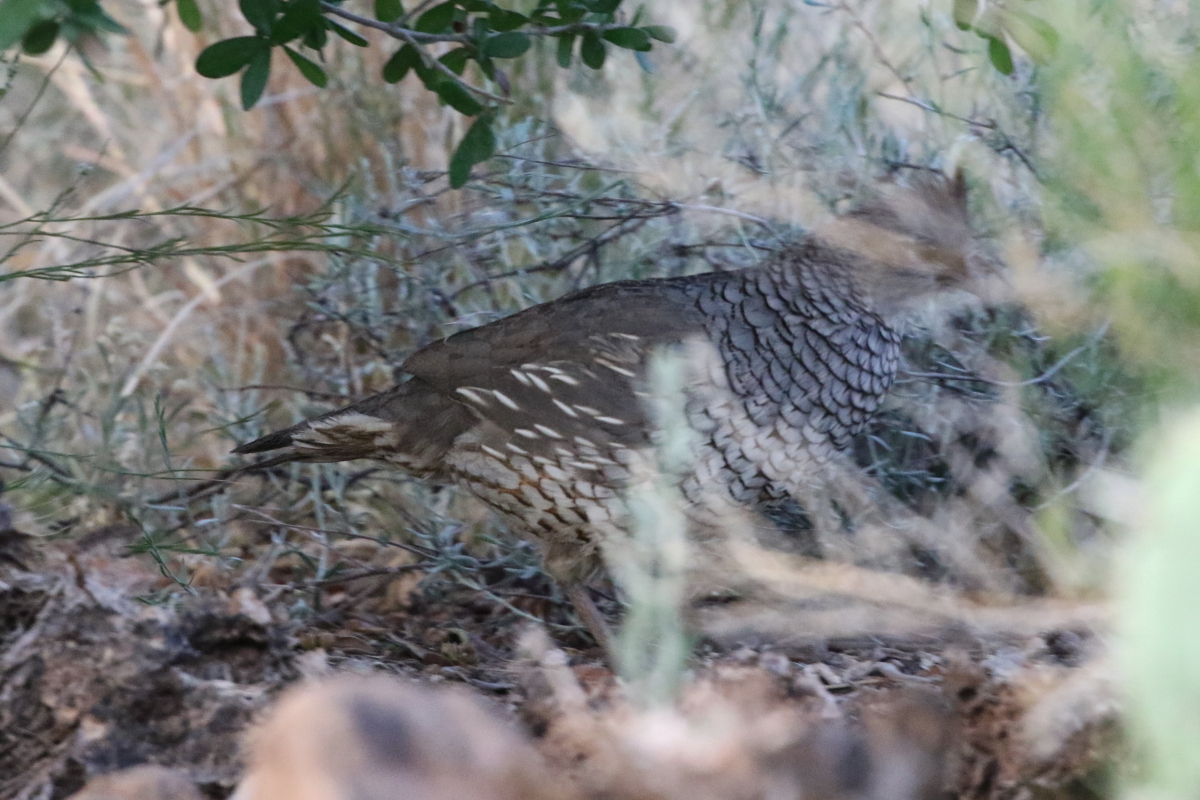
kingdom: Animalia
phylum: Chordata
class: Aves
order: Galliformes
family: Odontophoridae
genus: Callipepla
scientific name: Callipepla squamata
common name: Scaled quail
